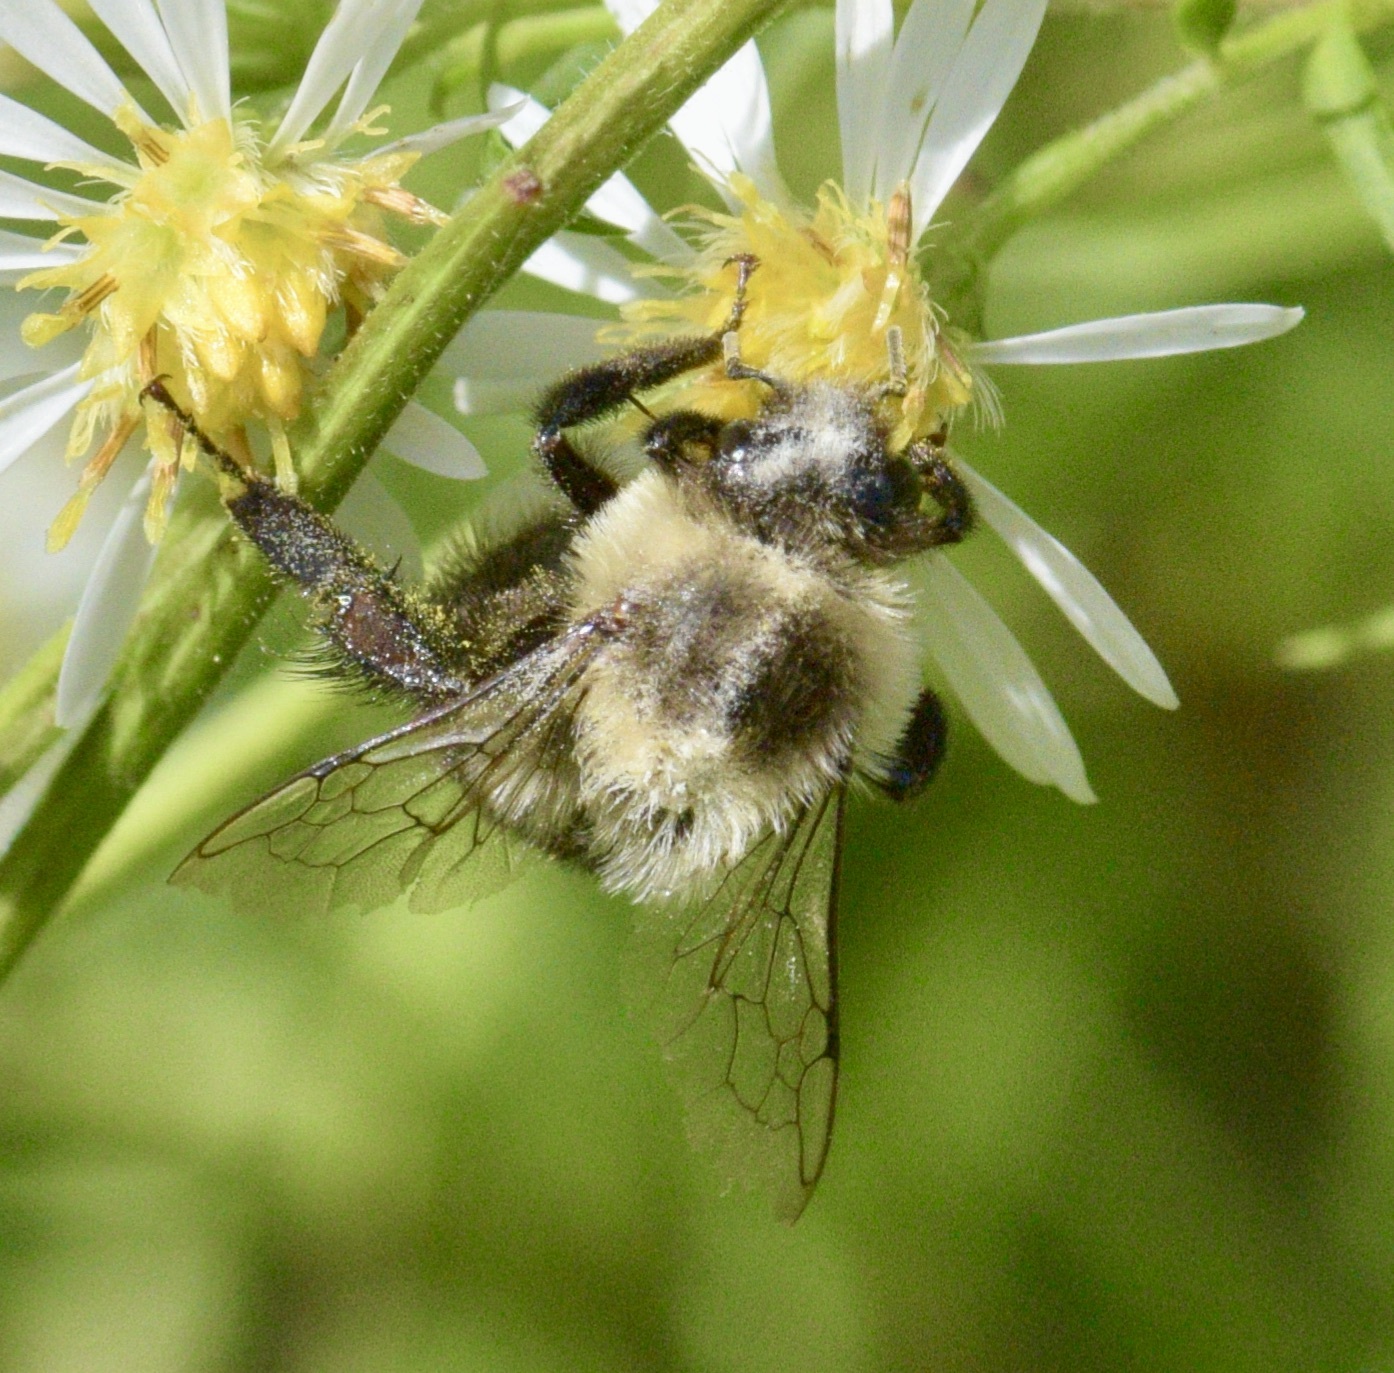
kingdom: Animalia
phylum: Arthropoda
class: Insecta
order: Hymenoptera
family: Apidae
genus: Bombus
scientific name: Bombus impatiens
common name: Common eastern bumble bee
